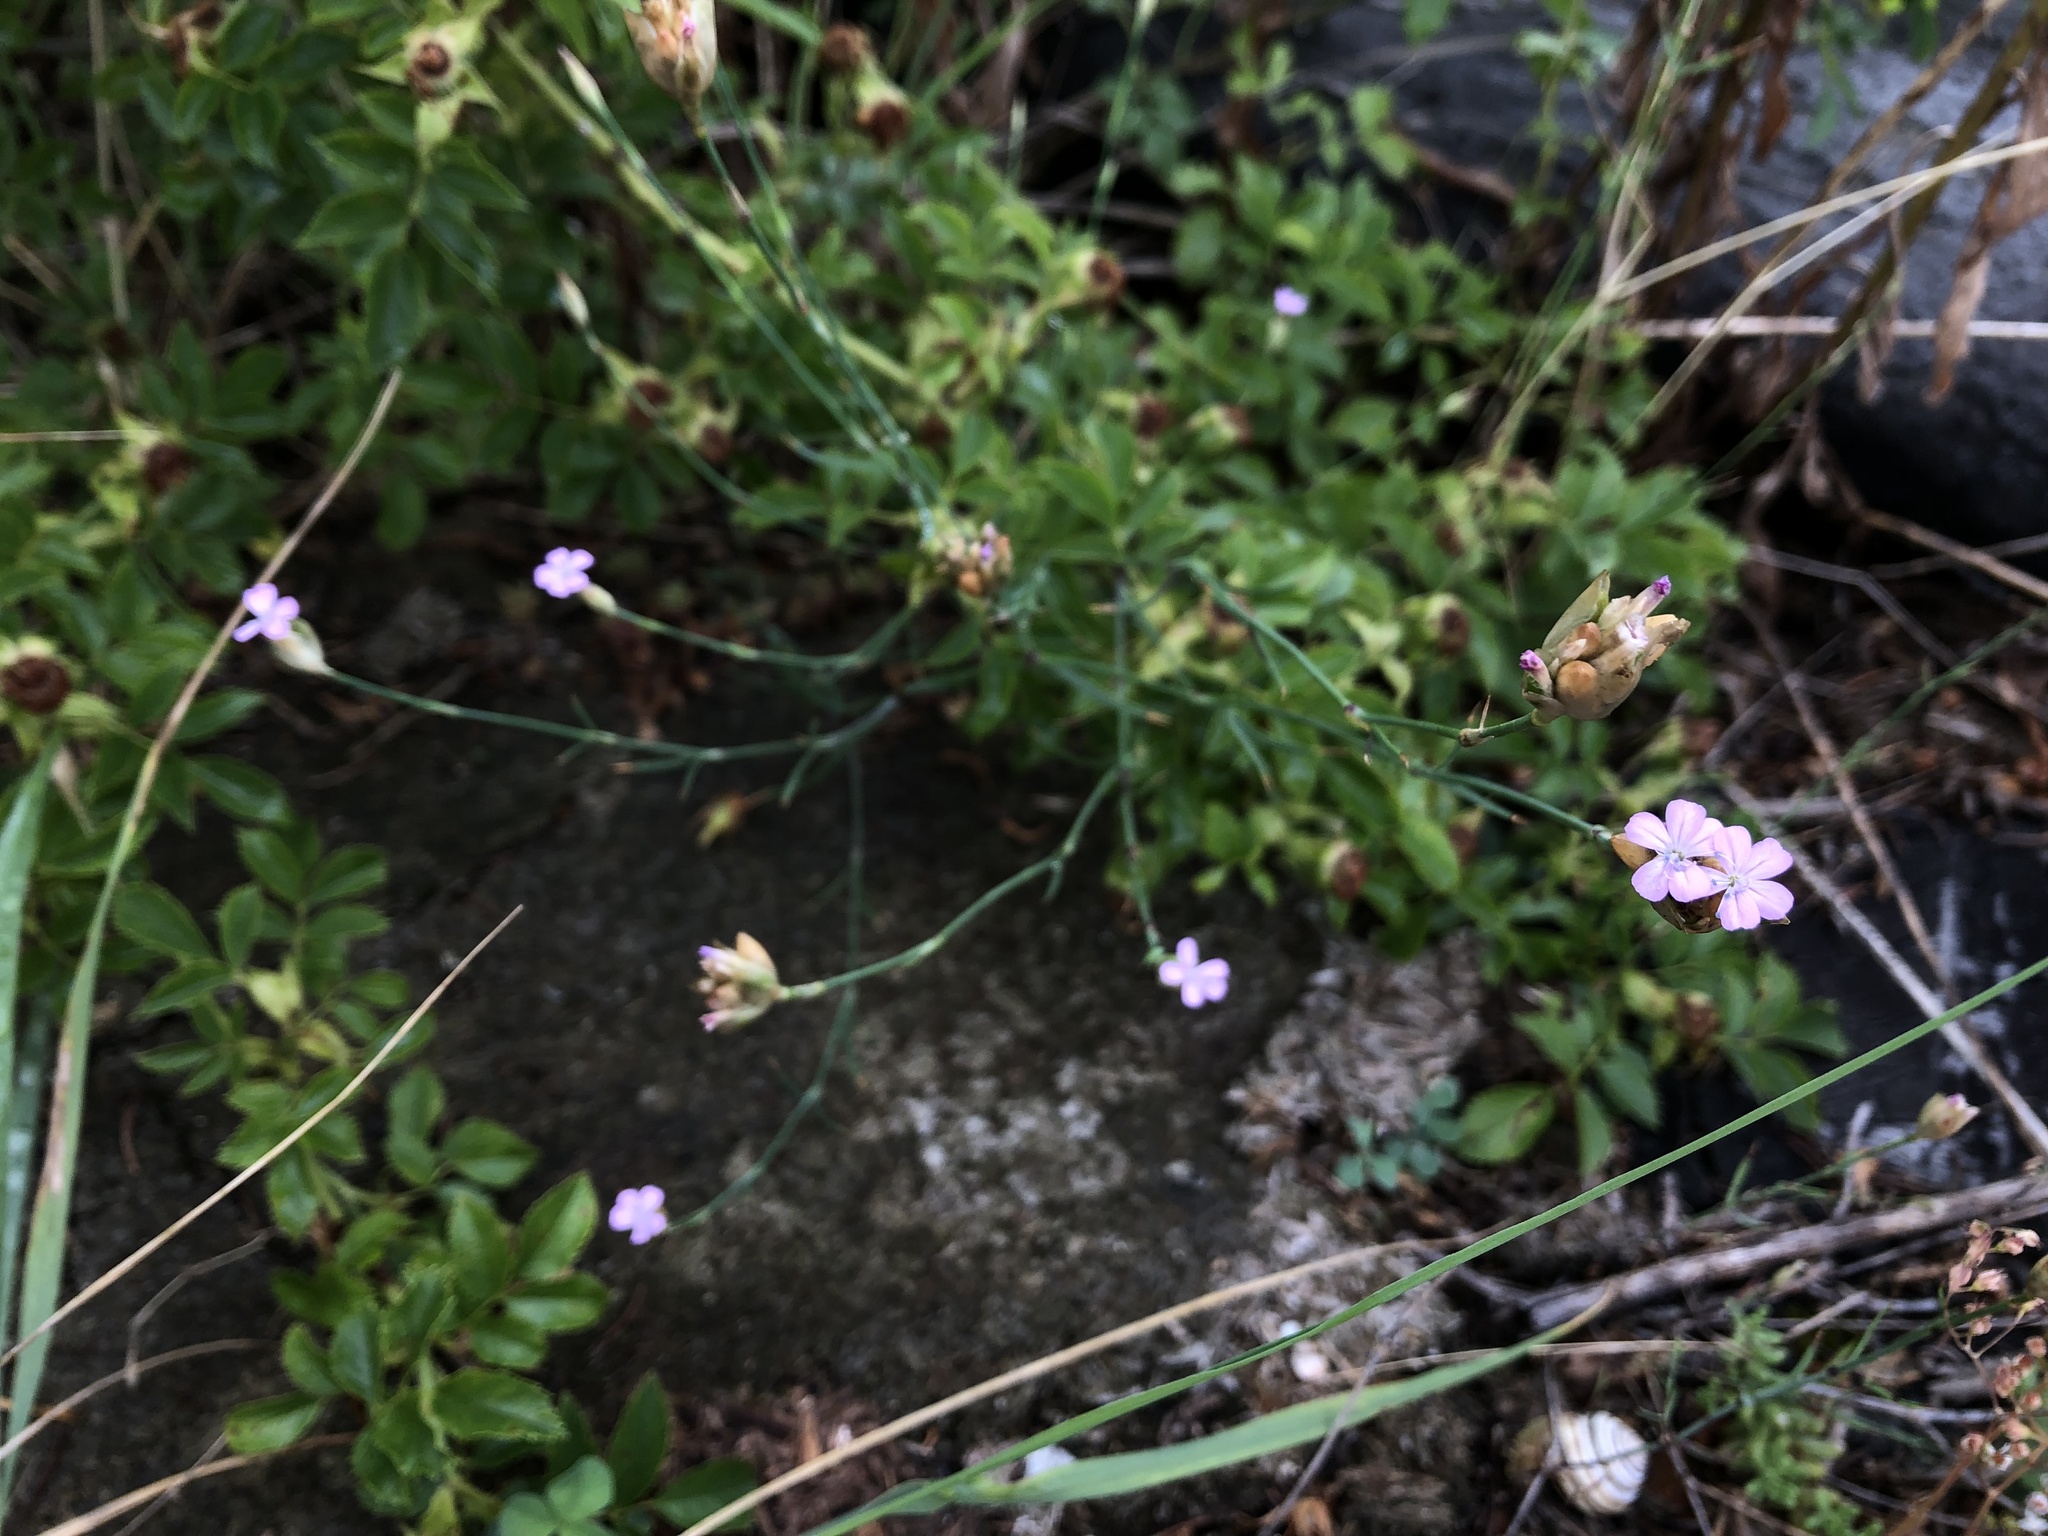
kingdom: Plantae
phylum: Tracheophyta
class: Magnoliopsida
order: Caryophyllales
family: Caryophyllaceae
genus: Petrorhagia
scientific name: Petrorhagia prolifera
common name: Proliferous pink
